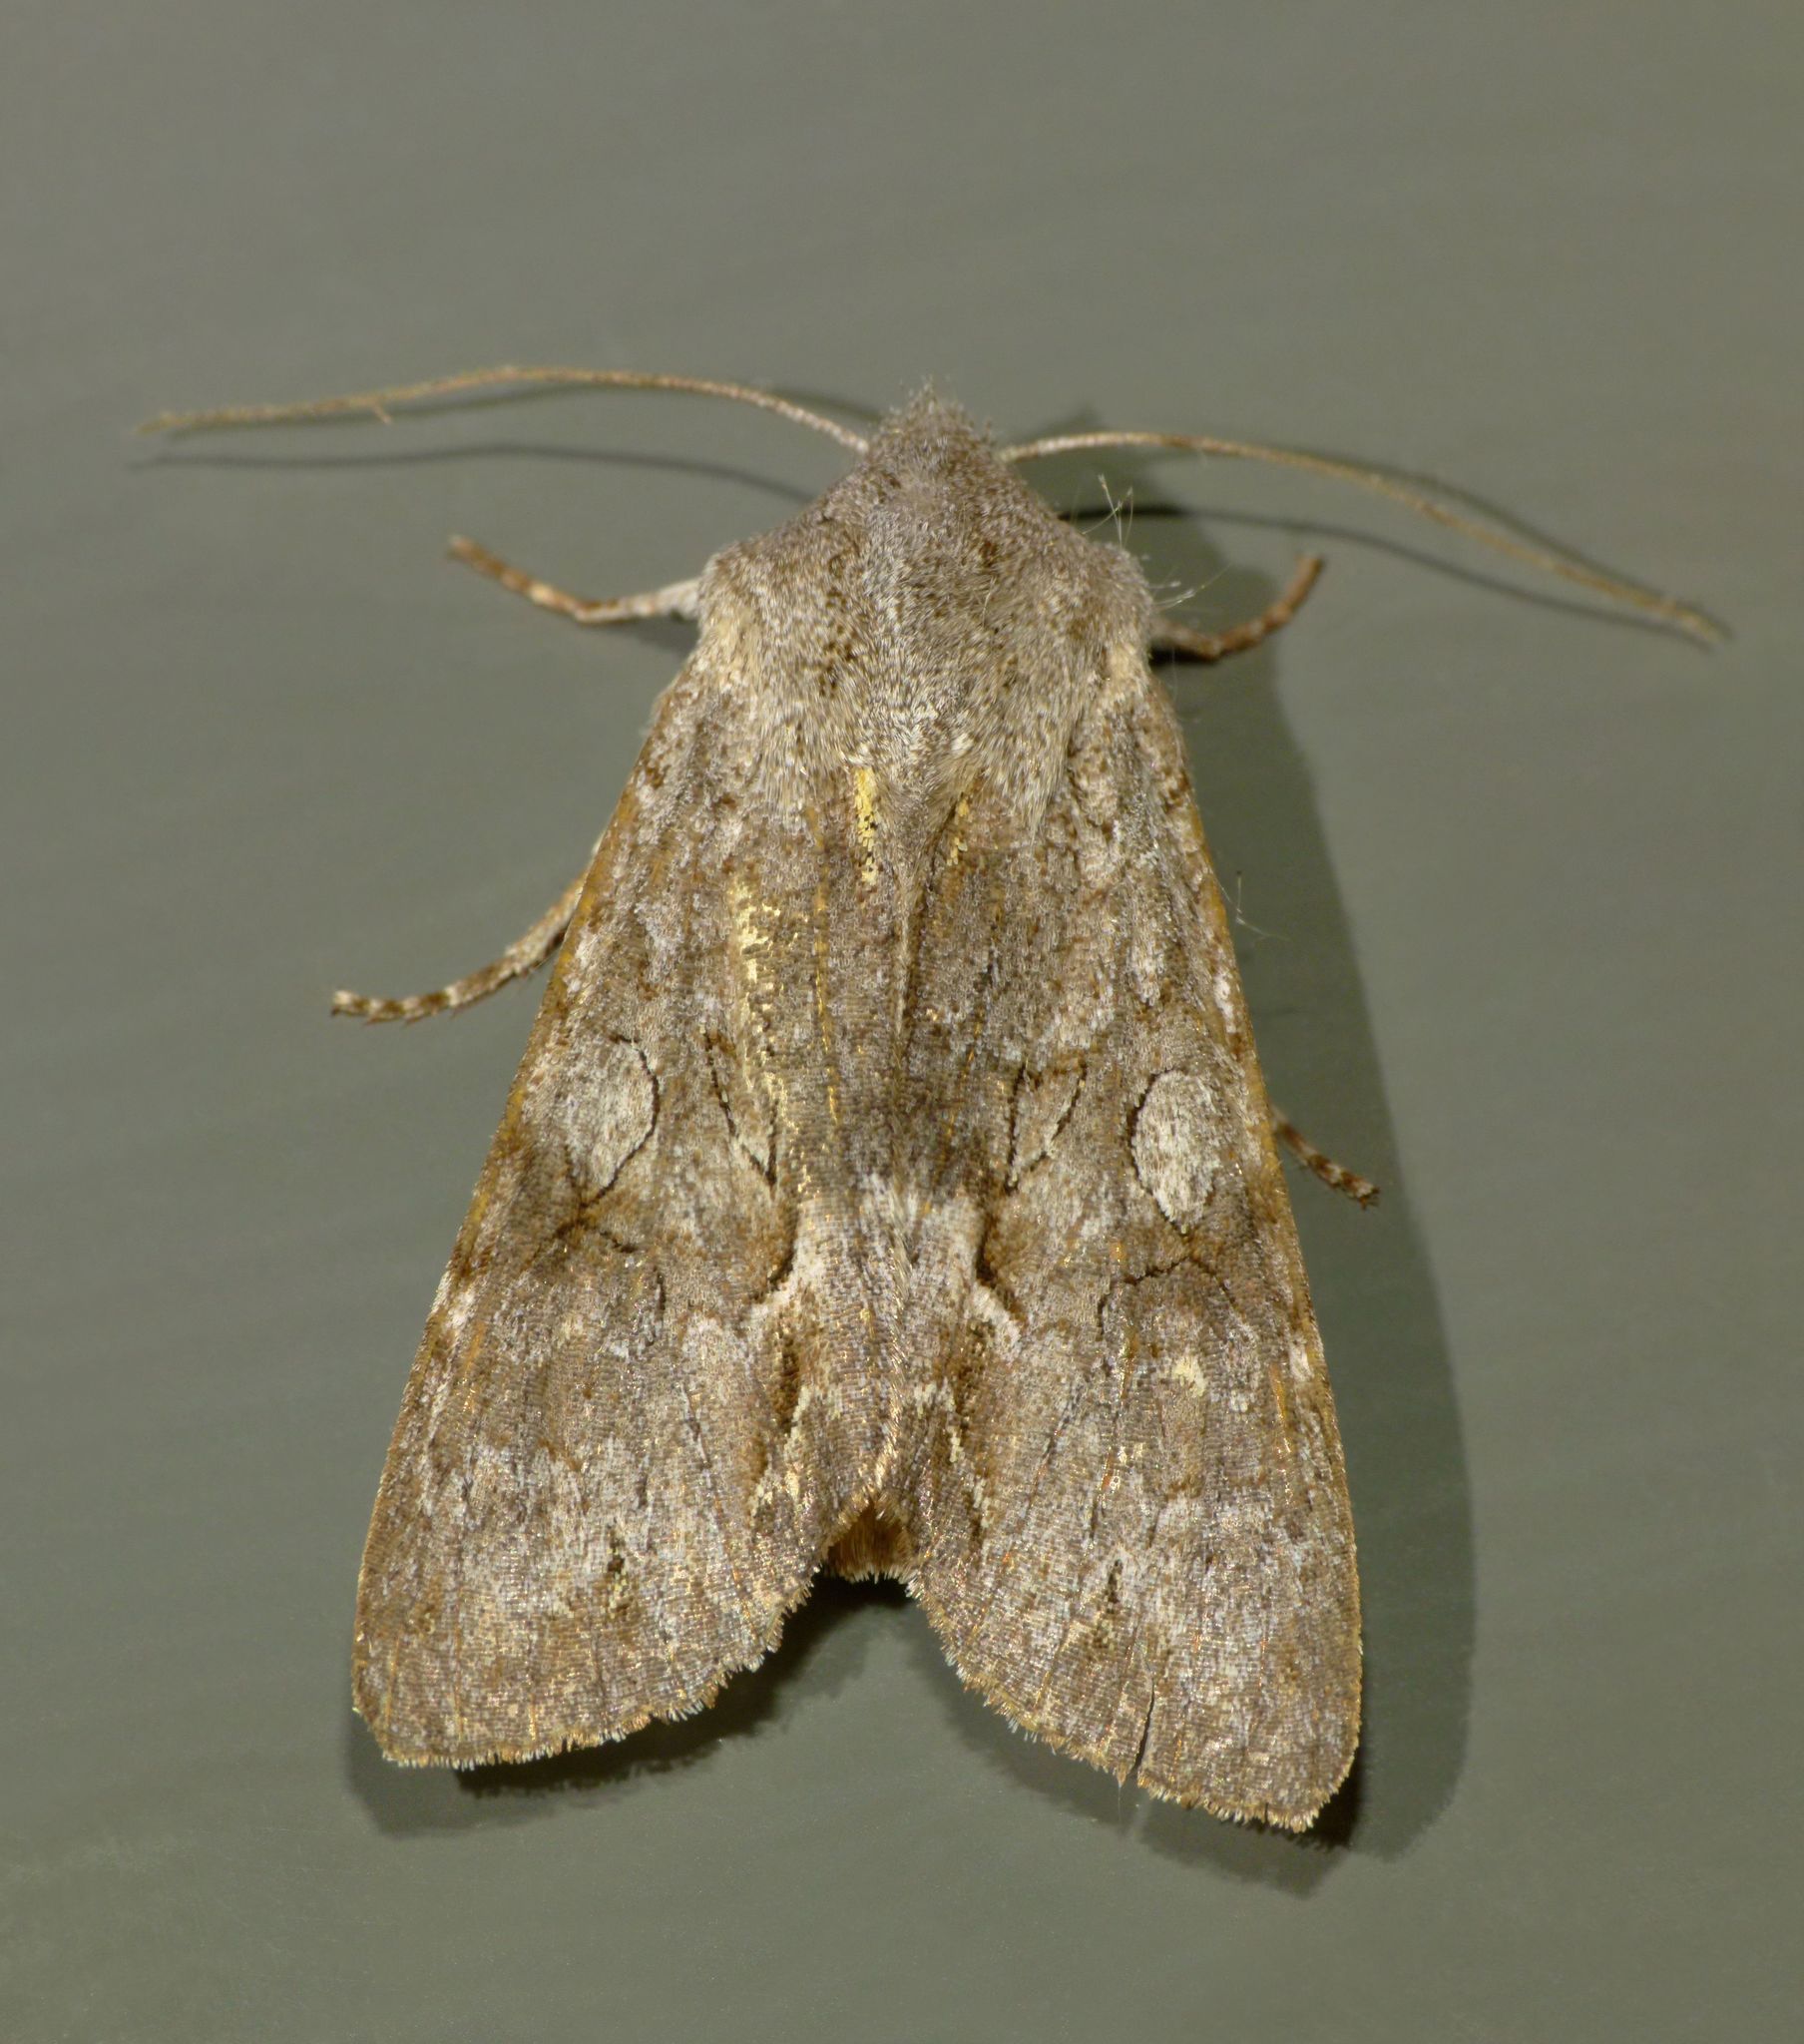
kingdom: Animalia
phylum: Arthropoda
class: Insecta
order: Lepidoptera
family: Noctuidae
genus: Ichneutica
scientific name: Ichneutica
